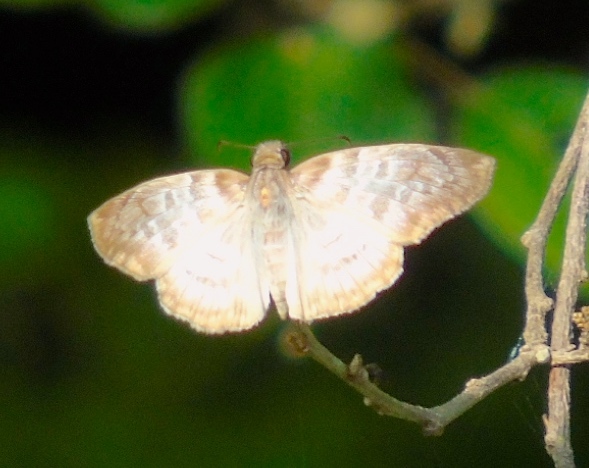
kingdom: Animalia
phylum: Arthropoda
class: Insecta
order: Lepidoptera
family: Hesperiidae
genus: Mylon
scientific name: Mylon pelopidas
